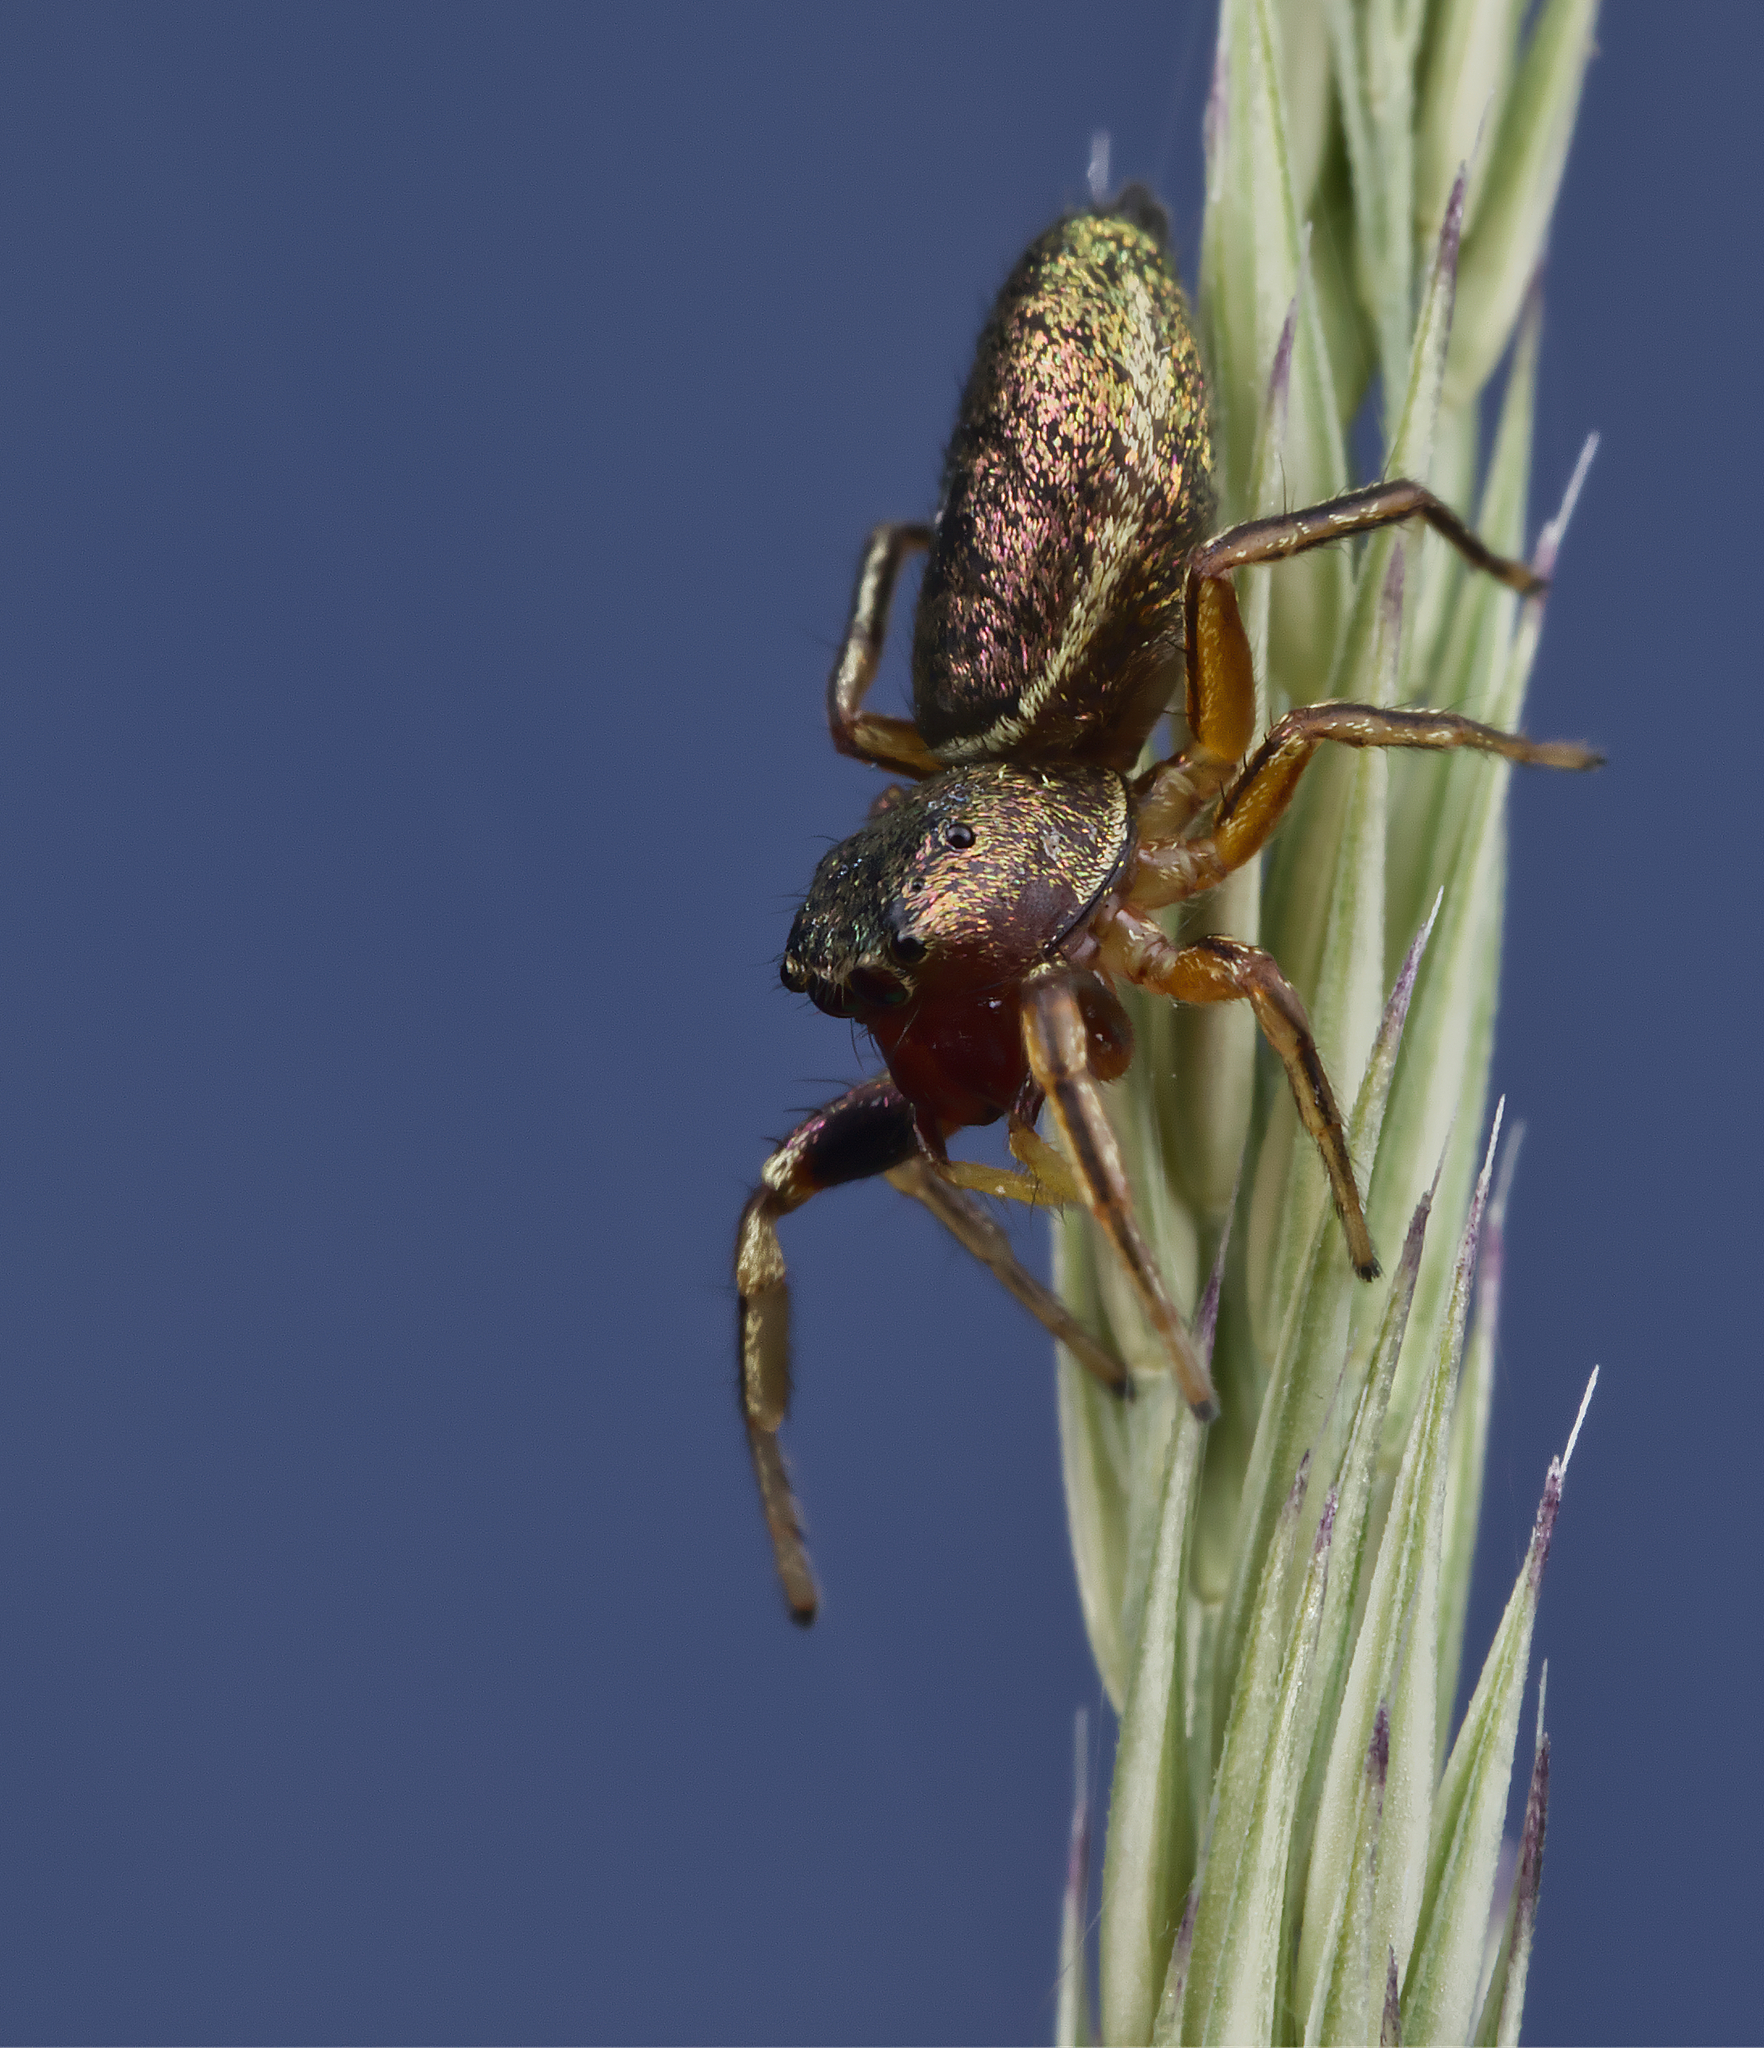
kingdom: Animalia
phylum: Arthropoda
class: Arachnida
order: Araneae
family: Salticidae
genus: Tutelina
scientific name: Tutelina elegans
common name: Thin-spined jumping spider
